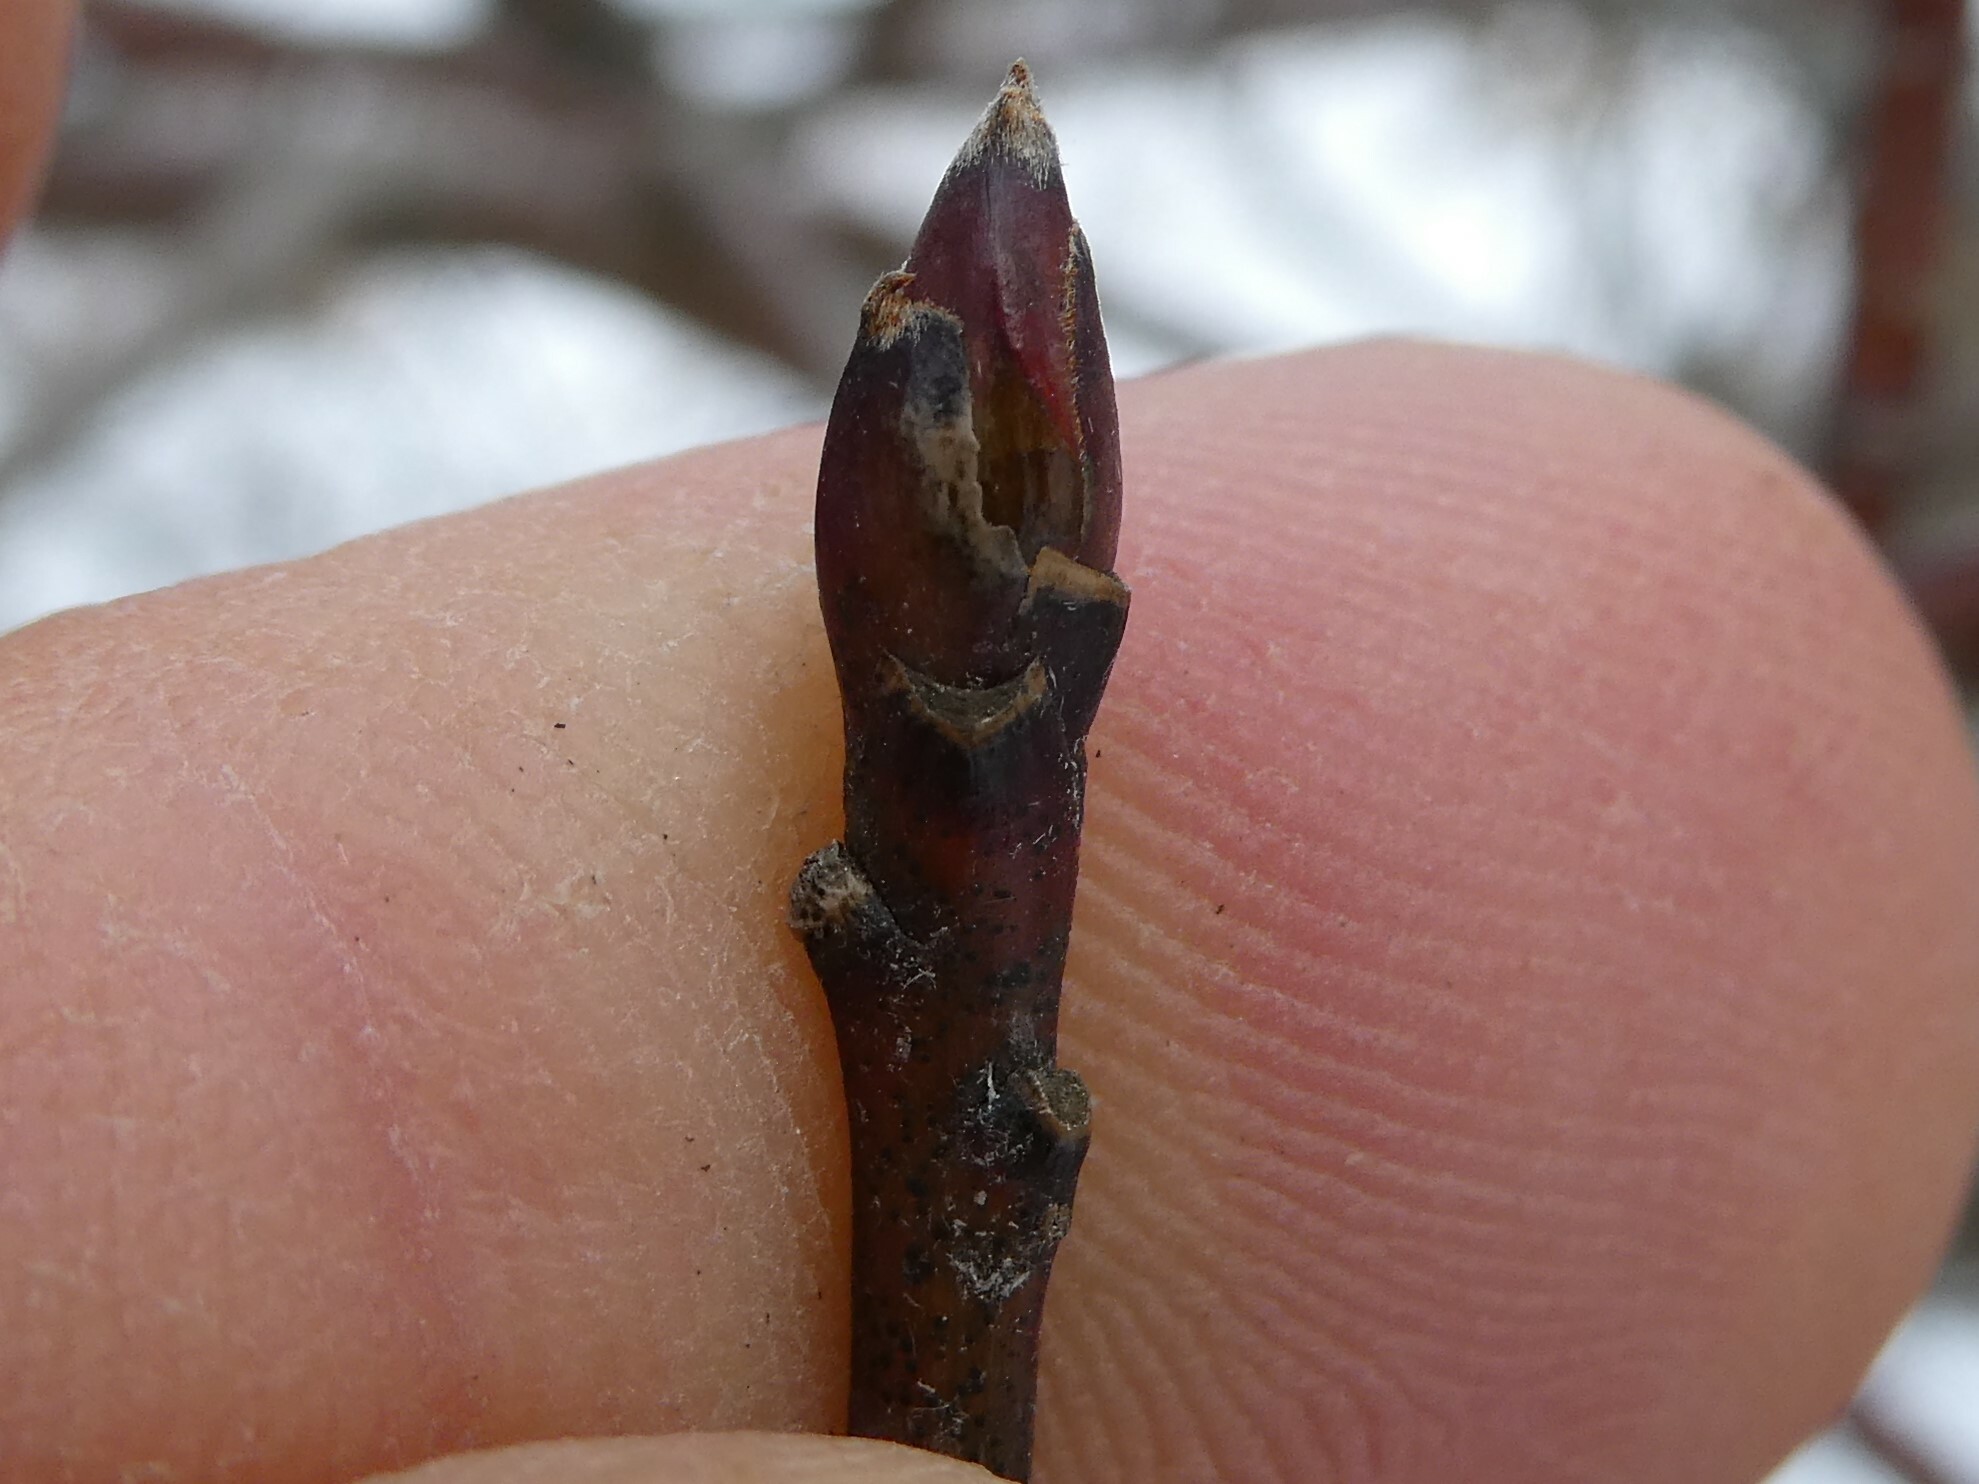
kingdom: Fungi
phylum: Ascomycota
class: Sordariomycetes
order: Diaporthales
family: Cryphonectriaceae
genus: Aurantioporthe
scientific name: Aurantioporthe corni
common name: Dogwood golden canker
